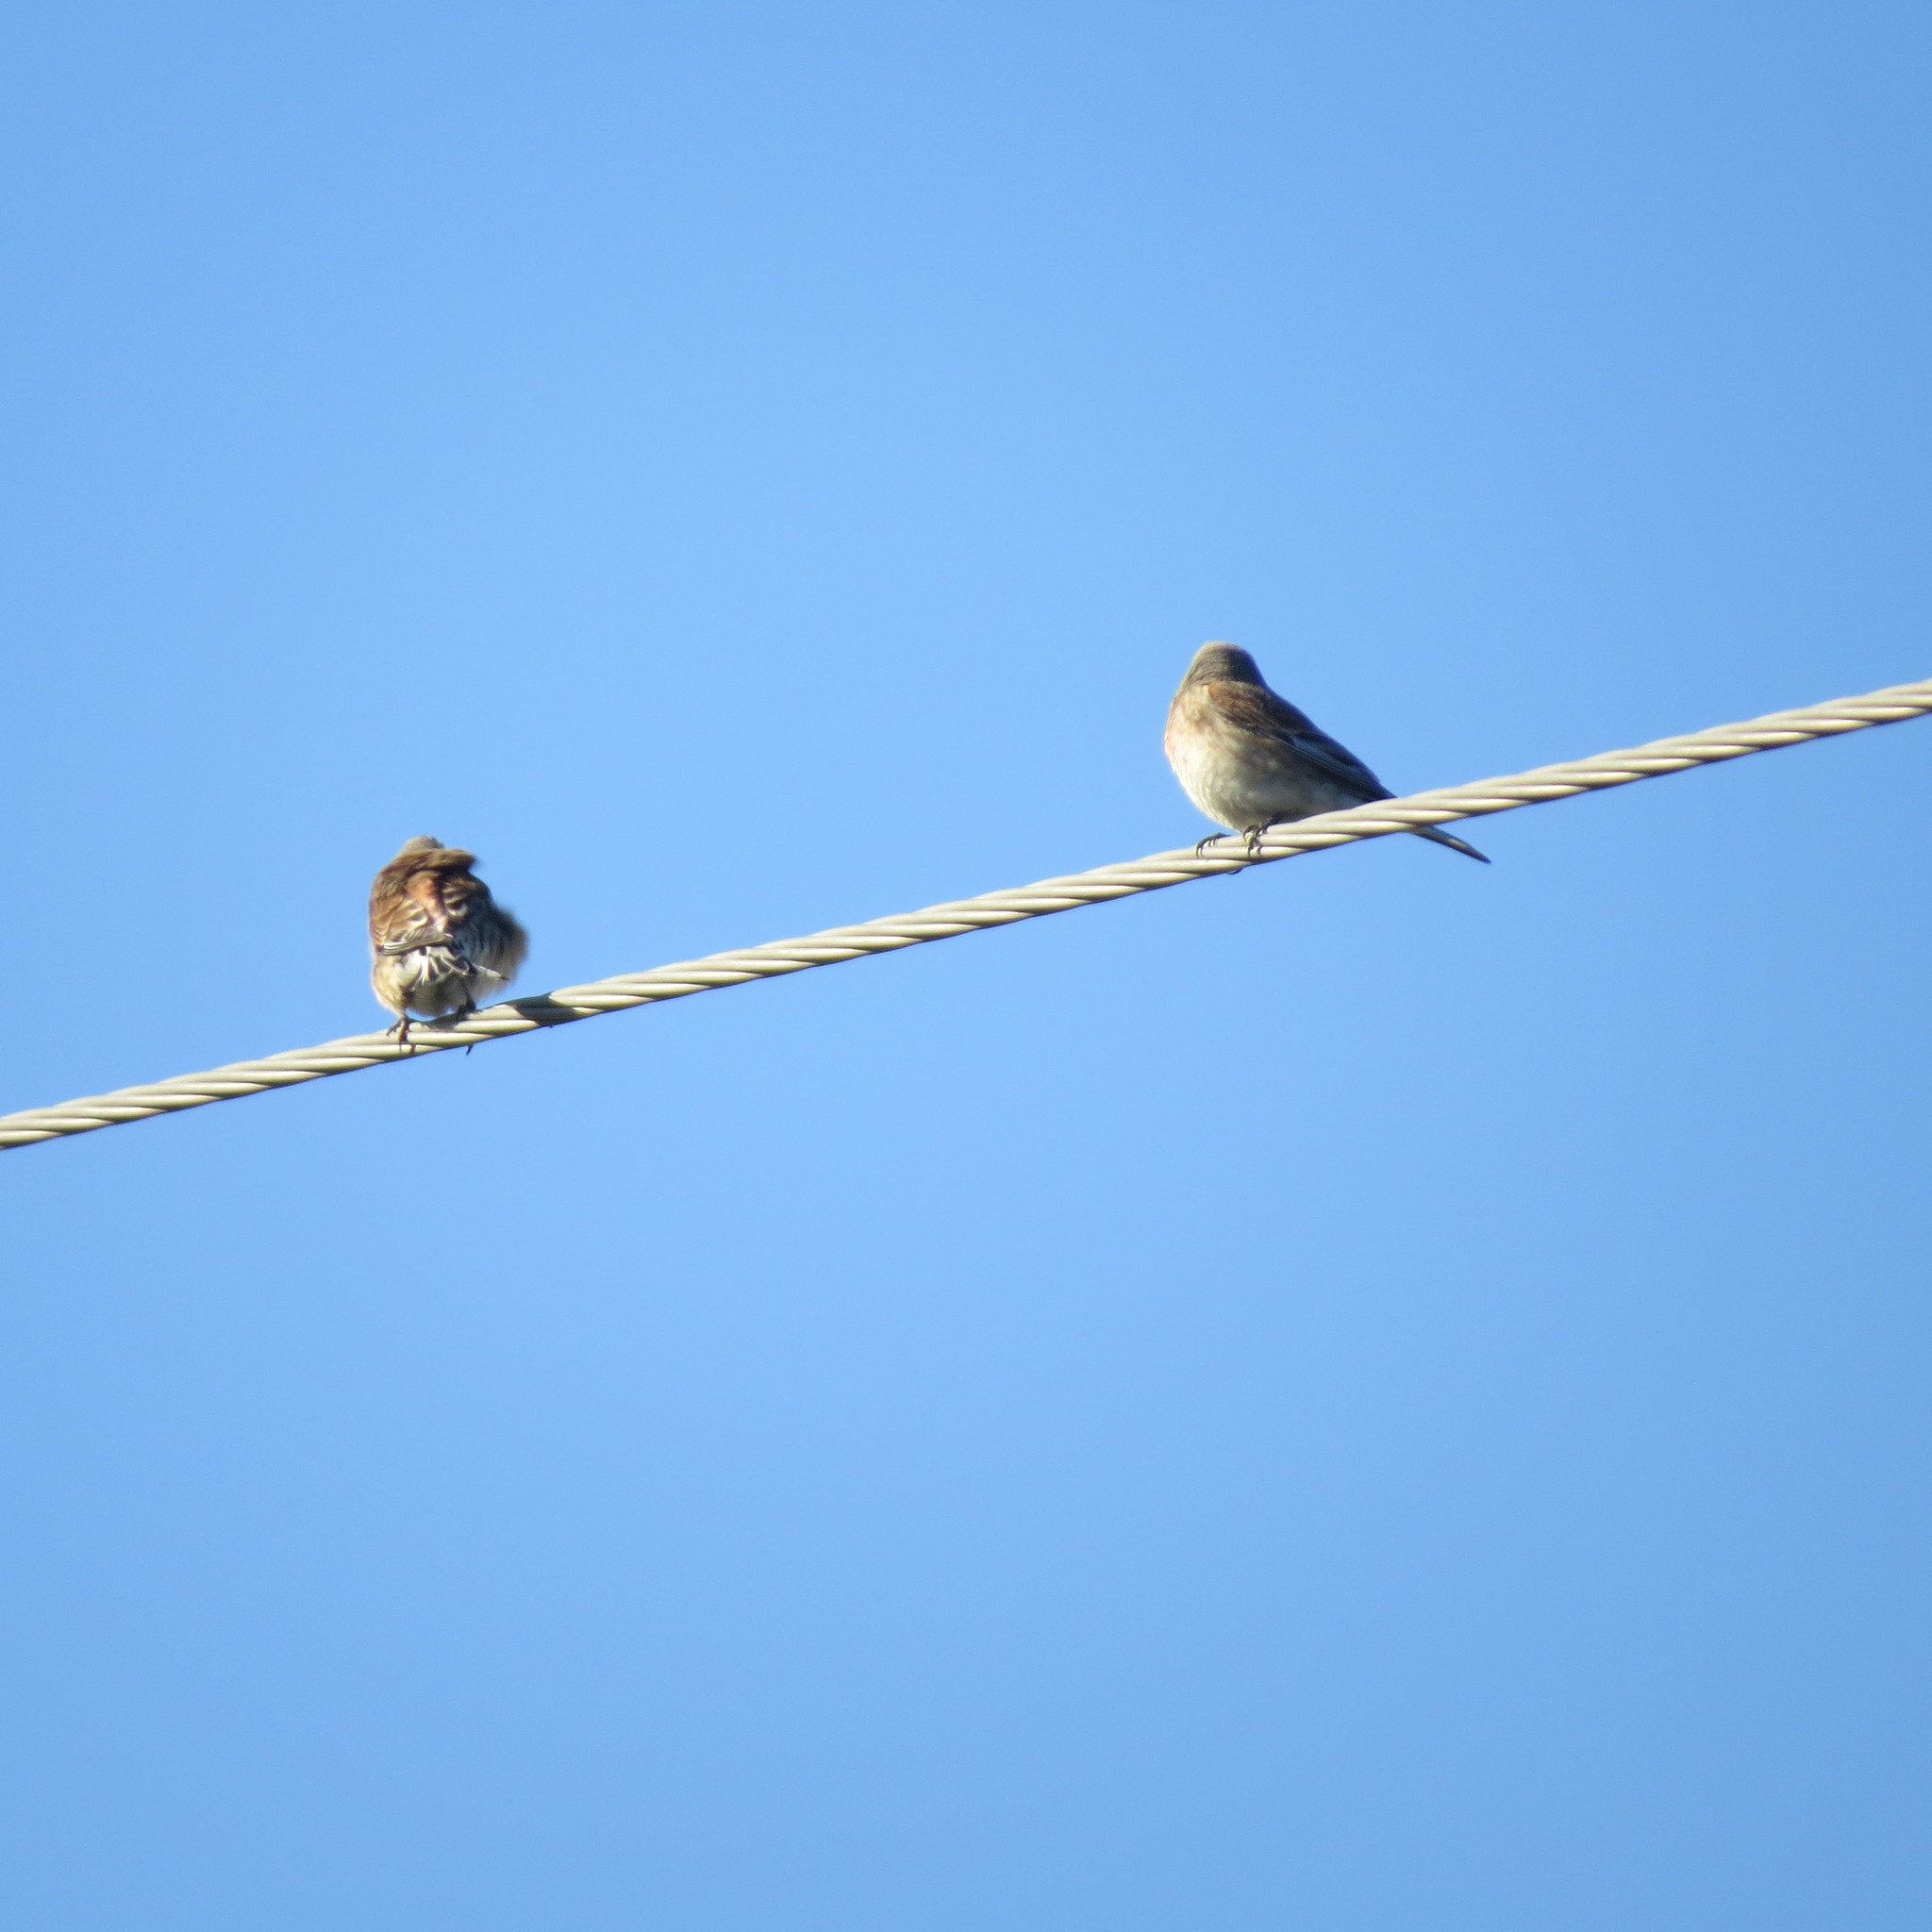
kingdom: Animalia
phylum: Chordata
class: Aves
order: Passeriformes
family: Fringillidae
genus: Linaria
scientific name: Linaria cannabina
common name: Common linnet
